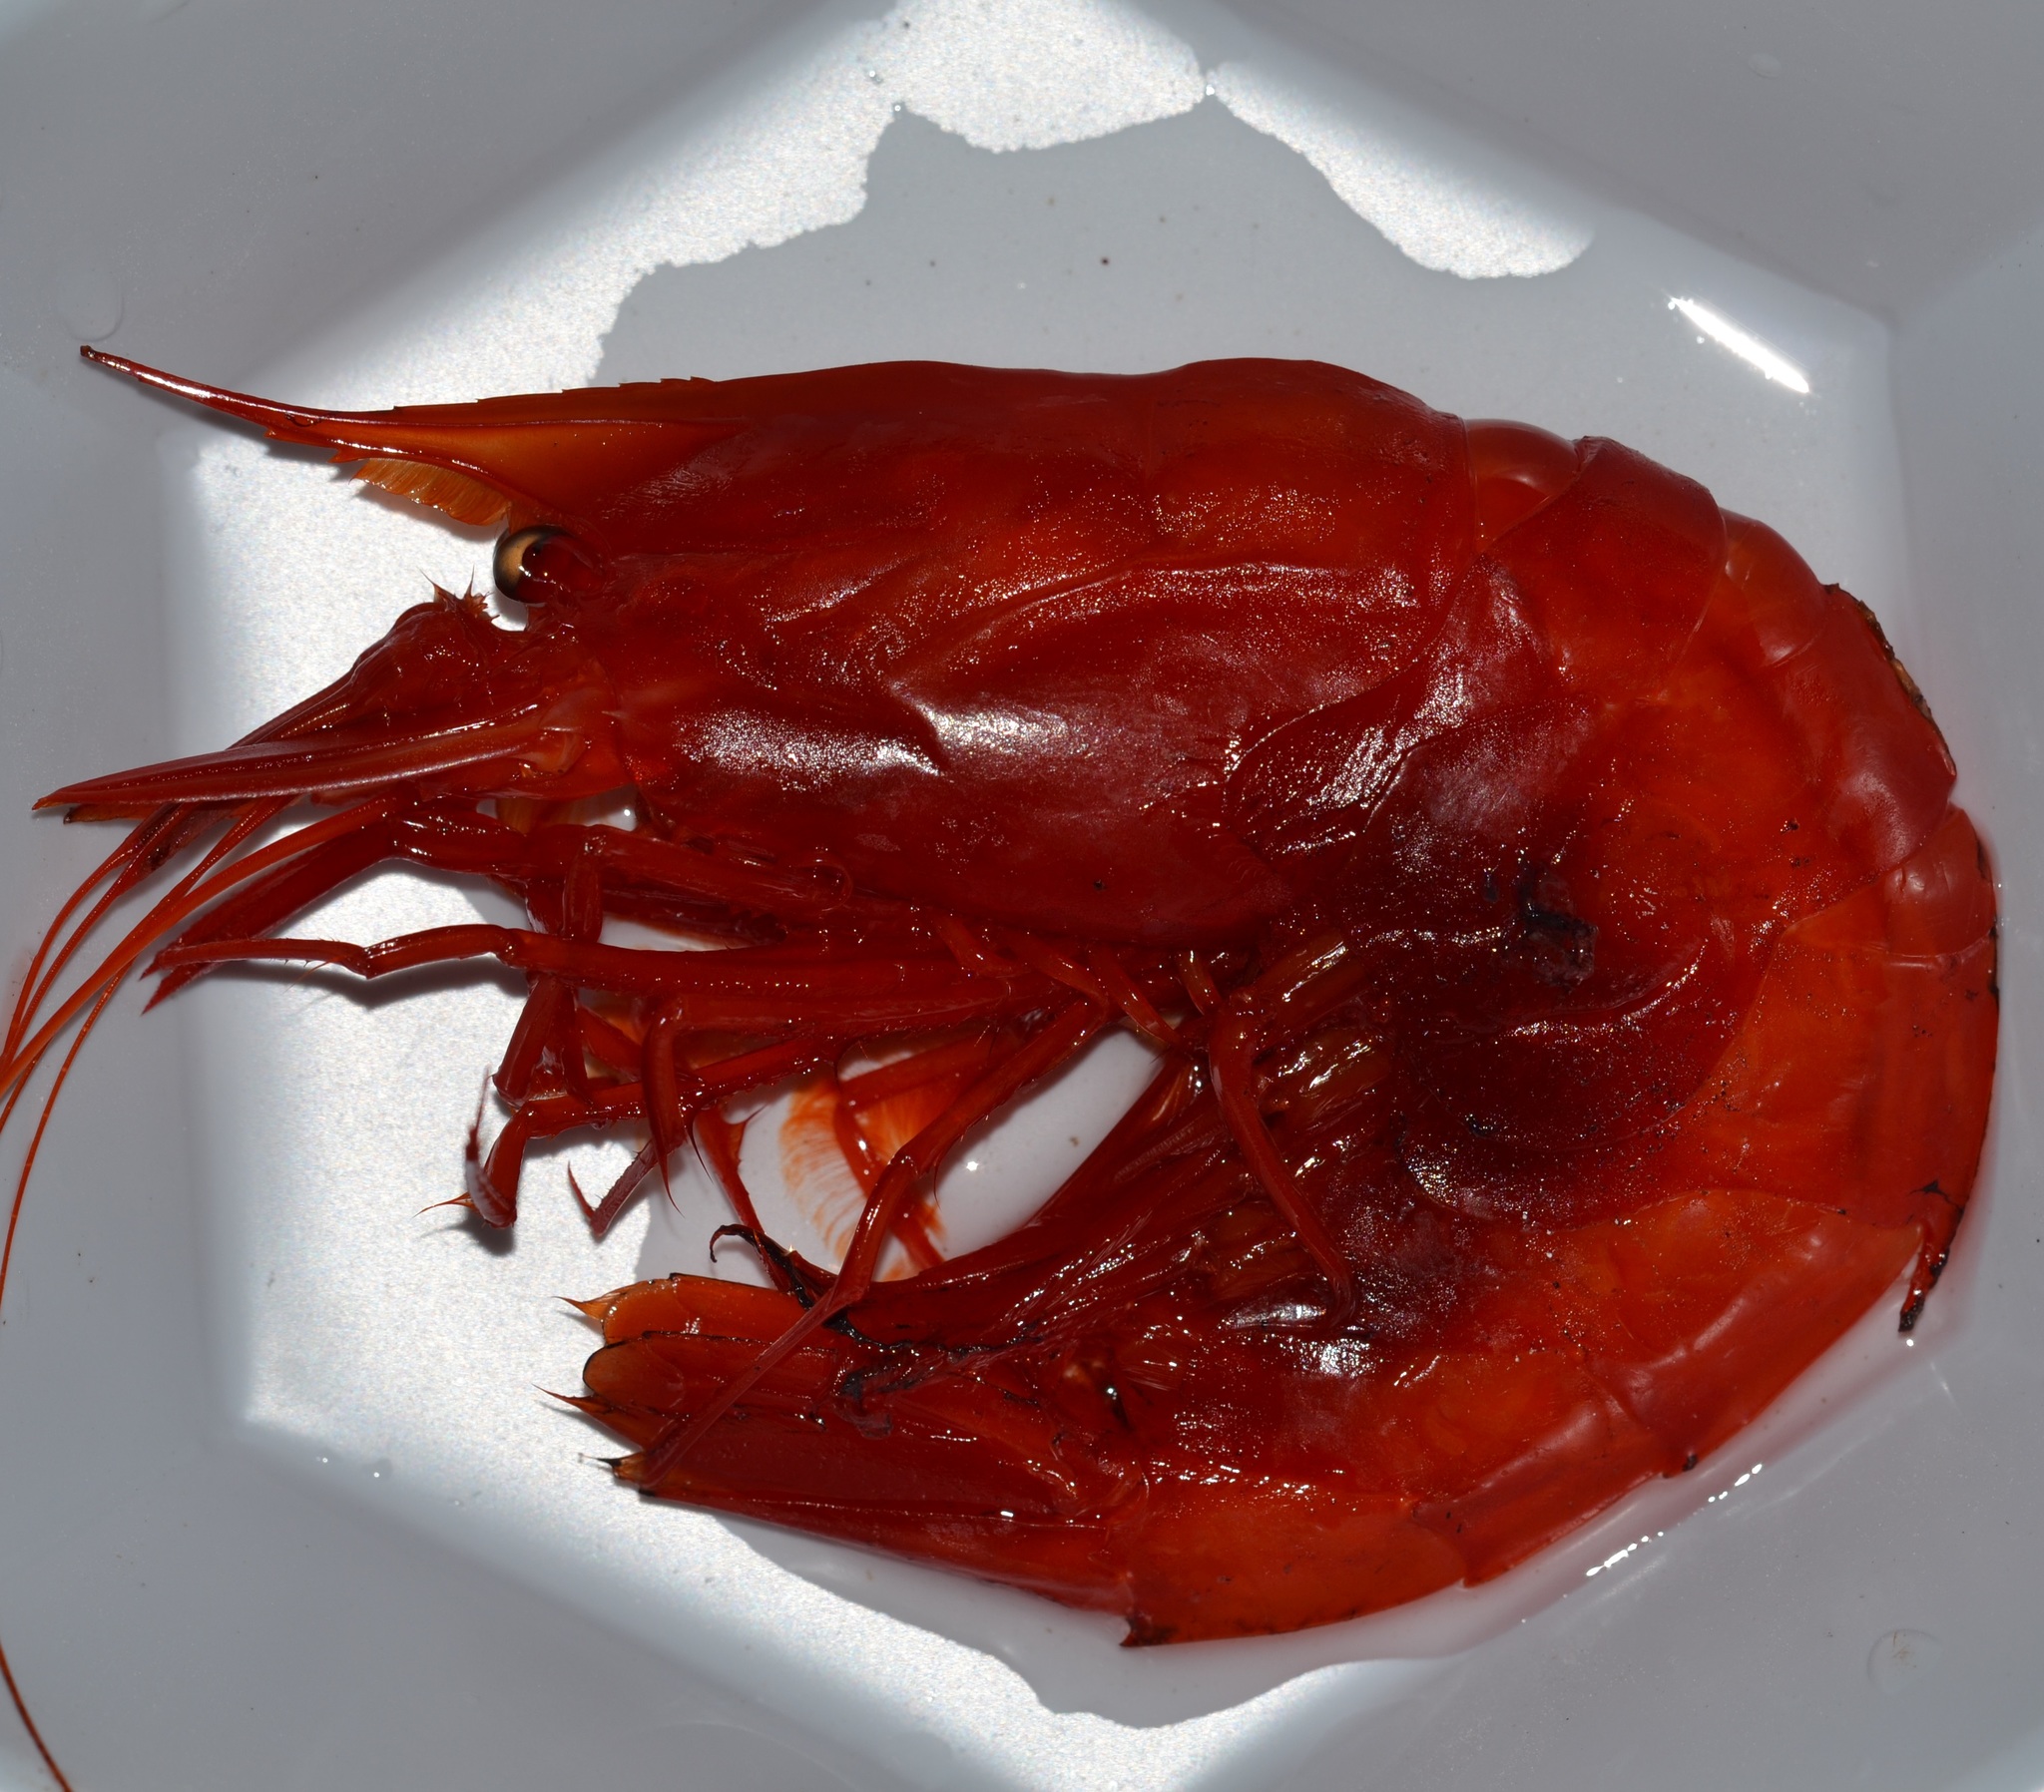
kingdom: Animalia
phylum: Arthropoda
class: Malacostraca
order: Decapoda
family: Acanthephyridae
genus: Acanthephyra
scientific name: Acanthephyra smithi
